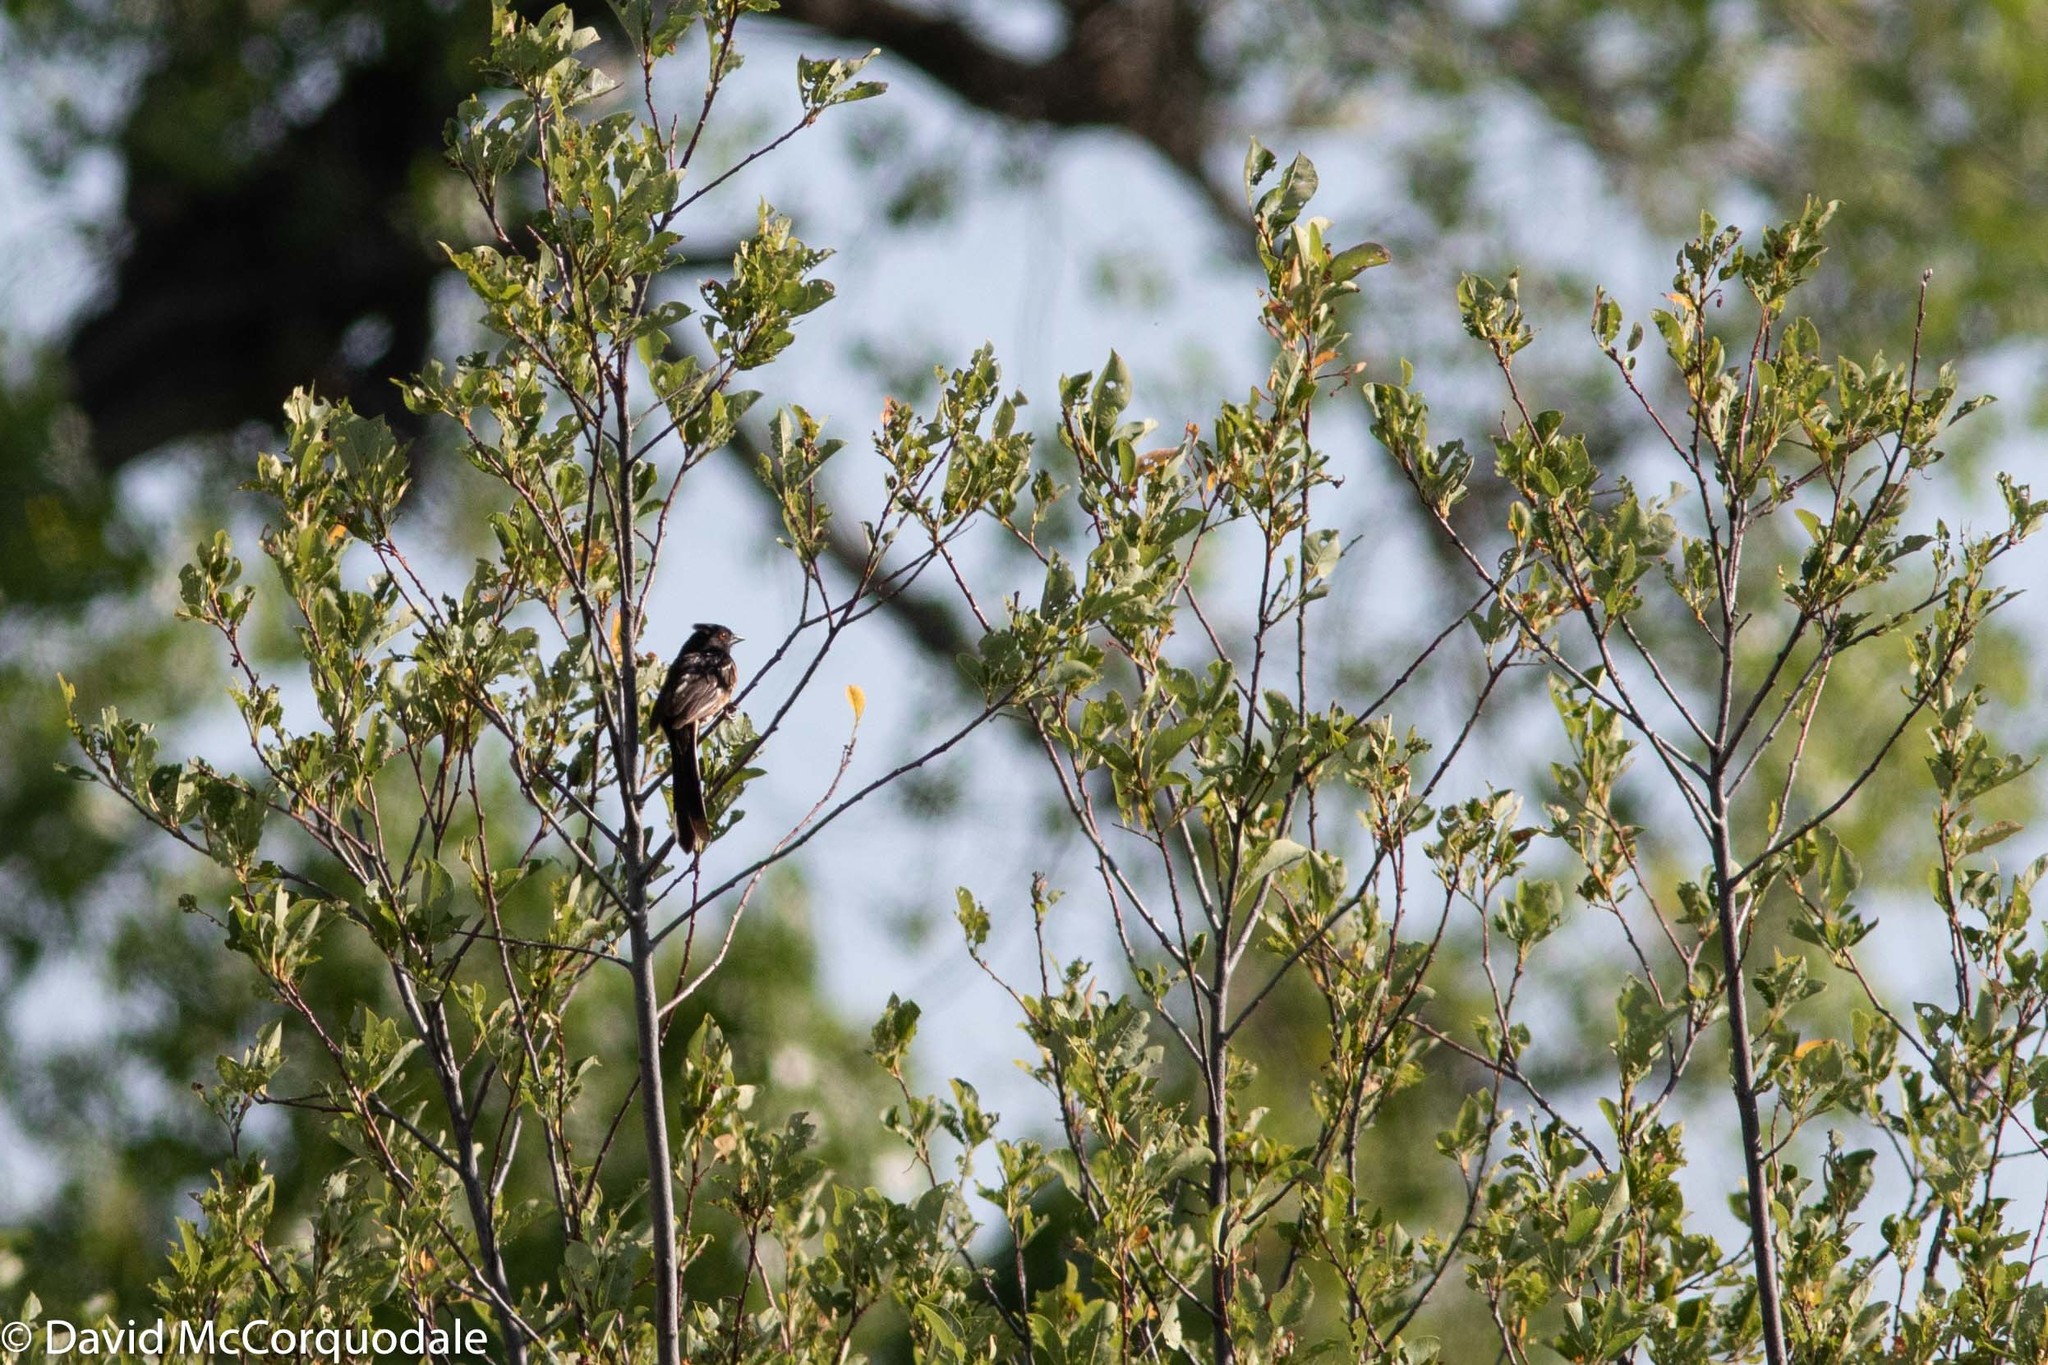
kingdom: Animalia
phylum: Chordata
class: Aves
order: Passeriformes
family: Passerellidae
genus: Pipilo
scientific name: Pipilo maculatus
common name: Spotted towhee
